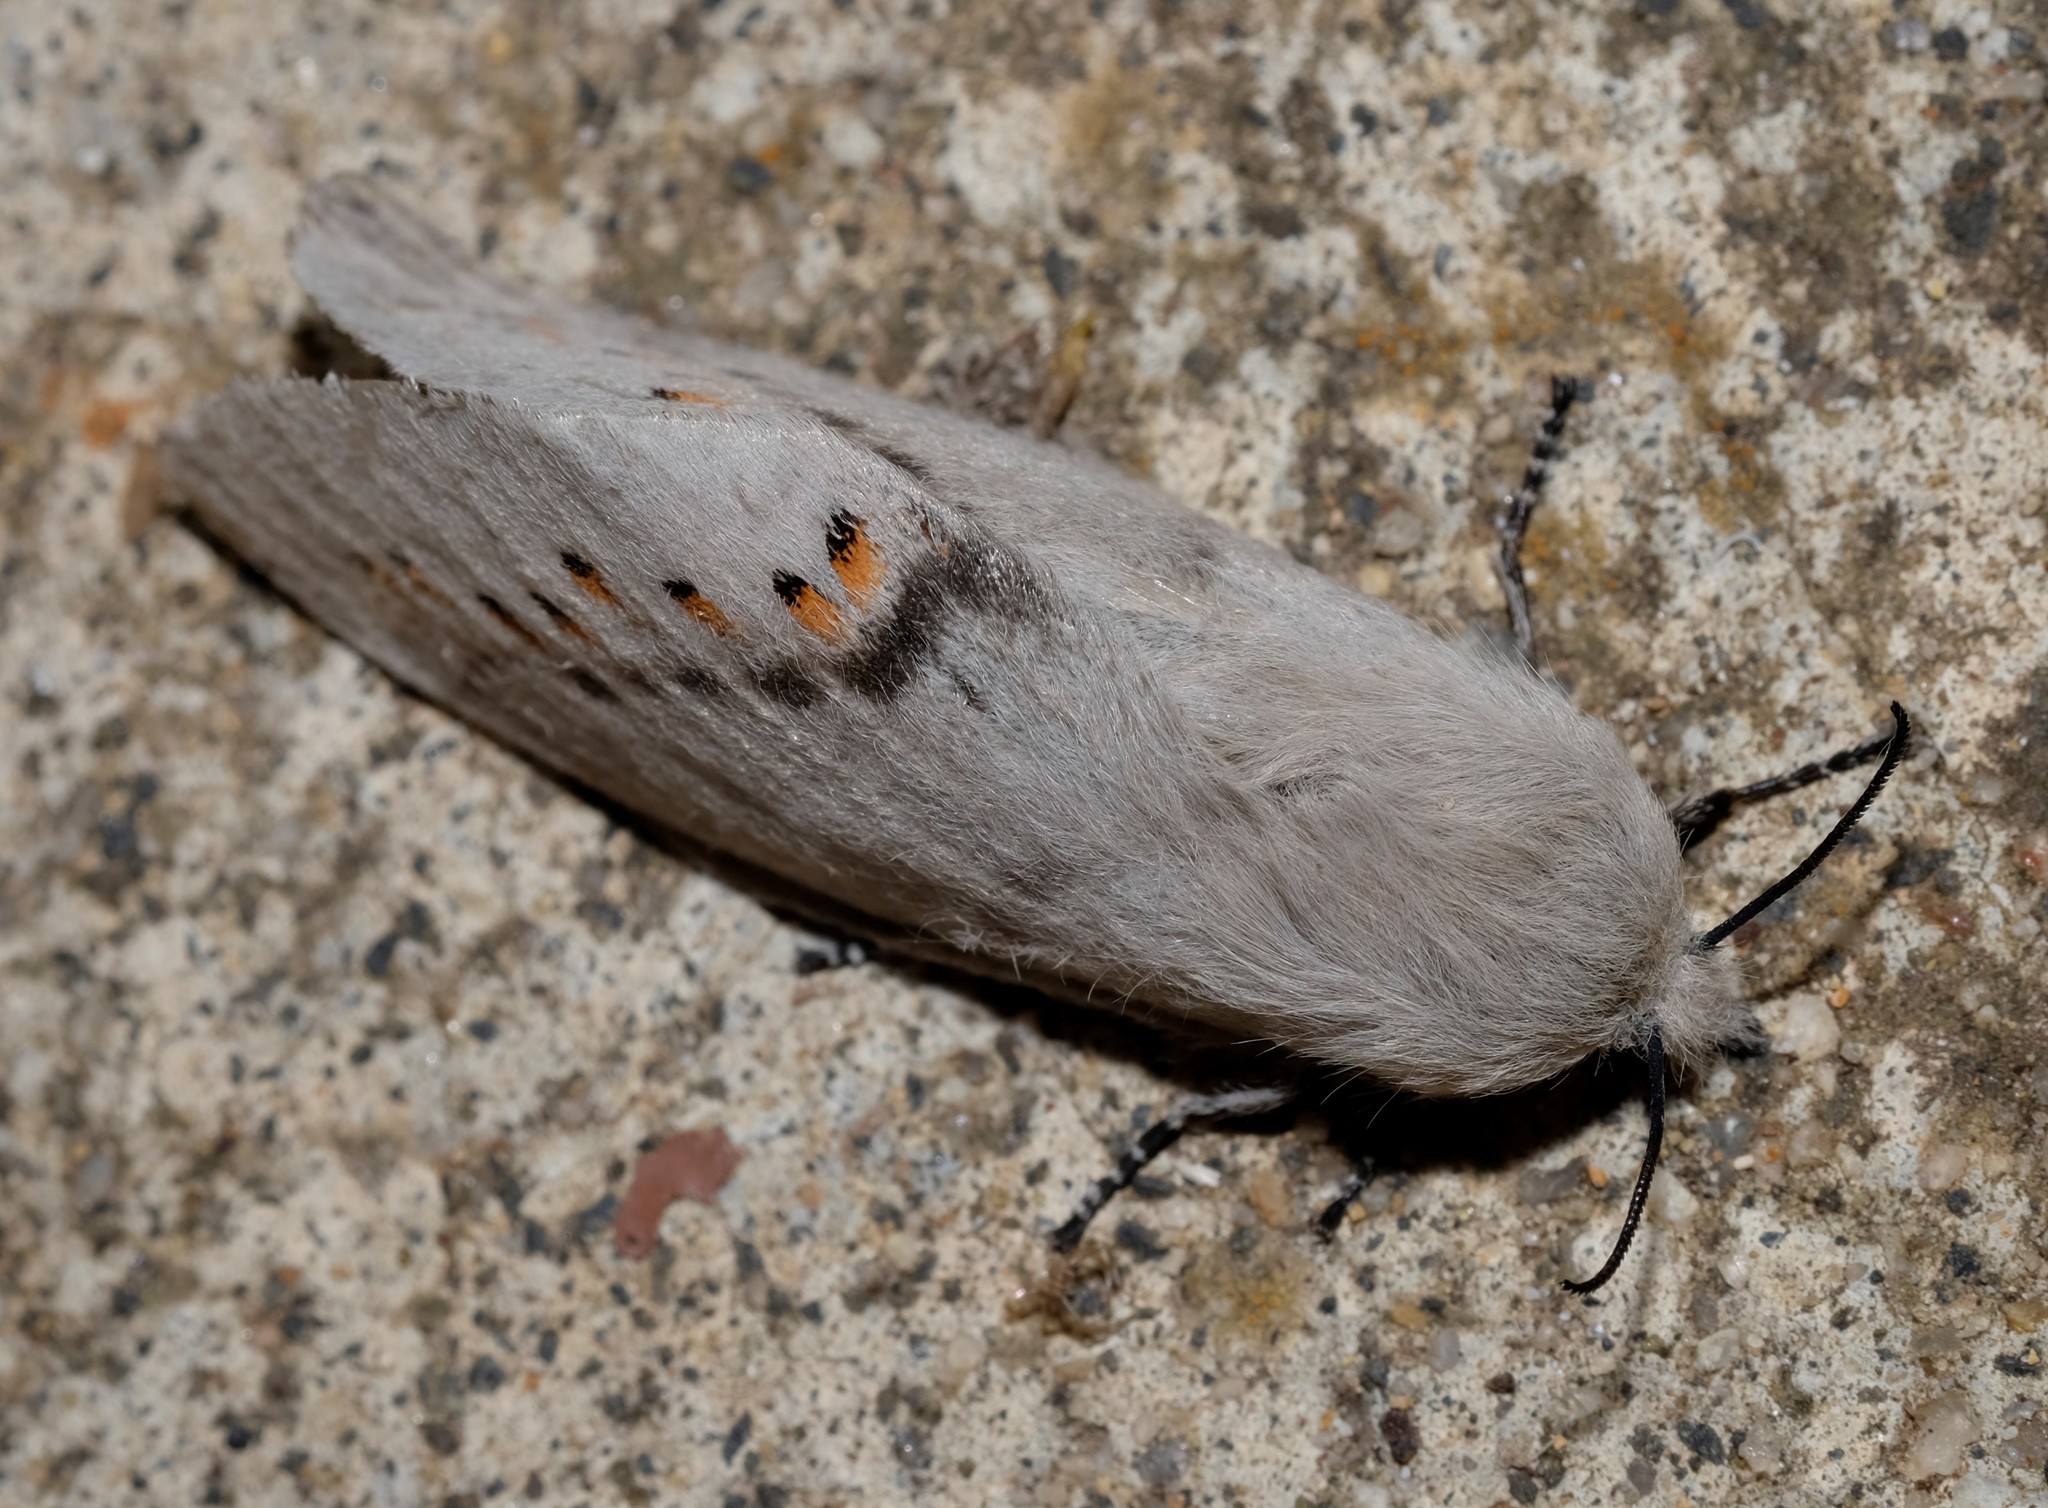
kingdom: Animalia
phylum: Arthropoda
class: Insecta
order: Lepidoptera
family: Lasiocampidae
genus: Pinara
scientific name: Pinara metaphaea
